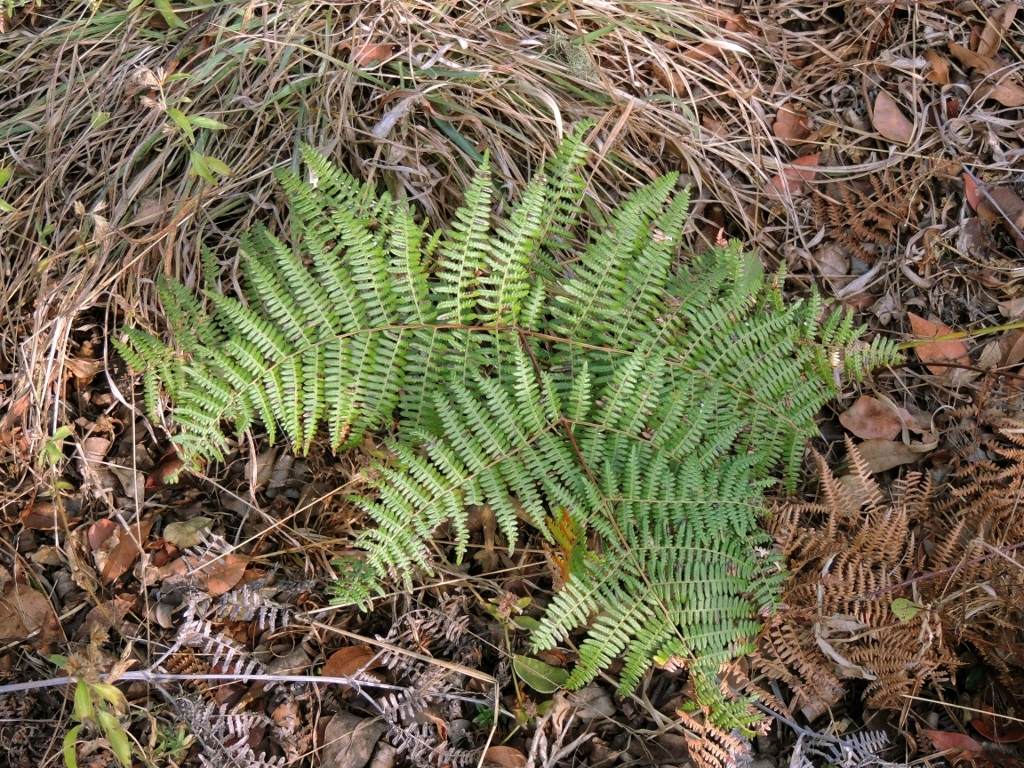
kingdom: Plantae
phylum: Tracheophyta
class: Polypodiopsida
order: Polypodiales
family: Dennstaedtiaceae
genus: Pteridium
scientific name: Pteridium aquilinum
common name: Bracken
